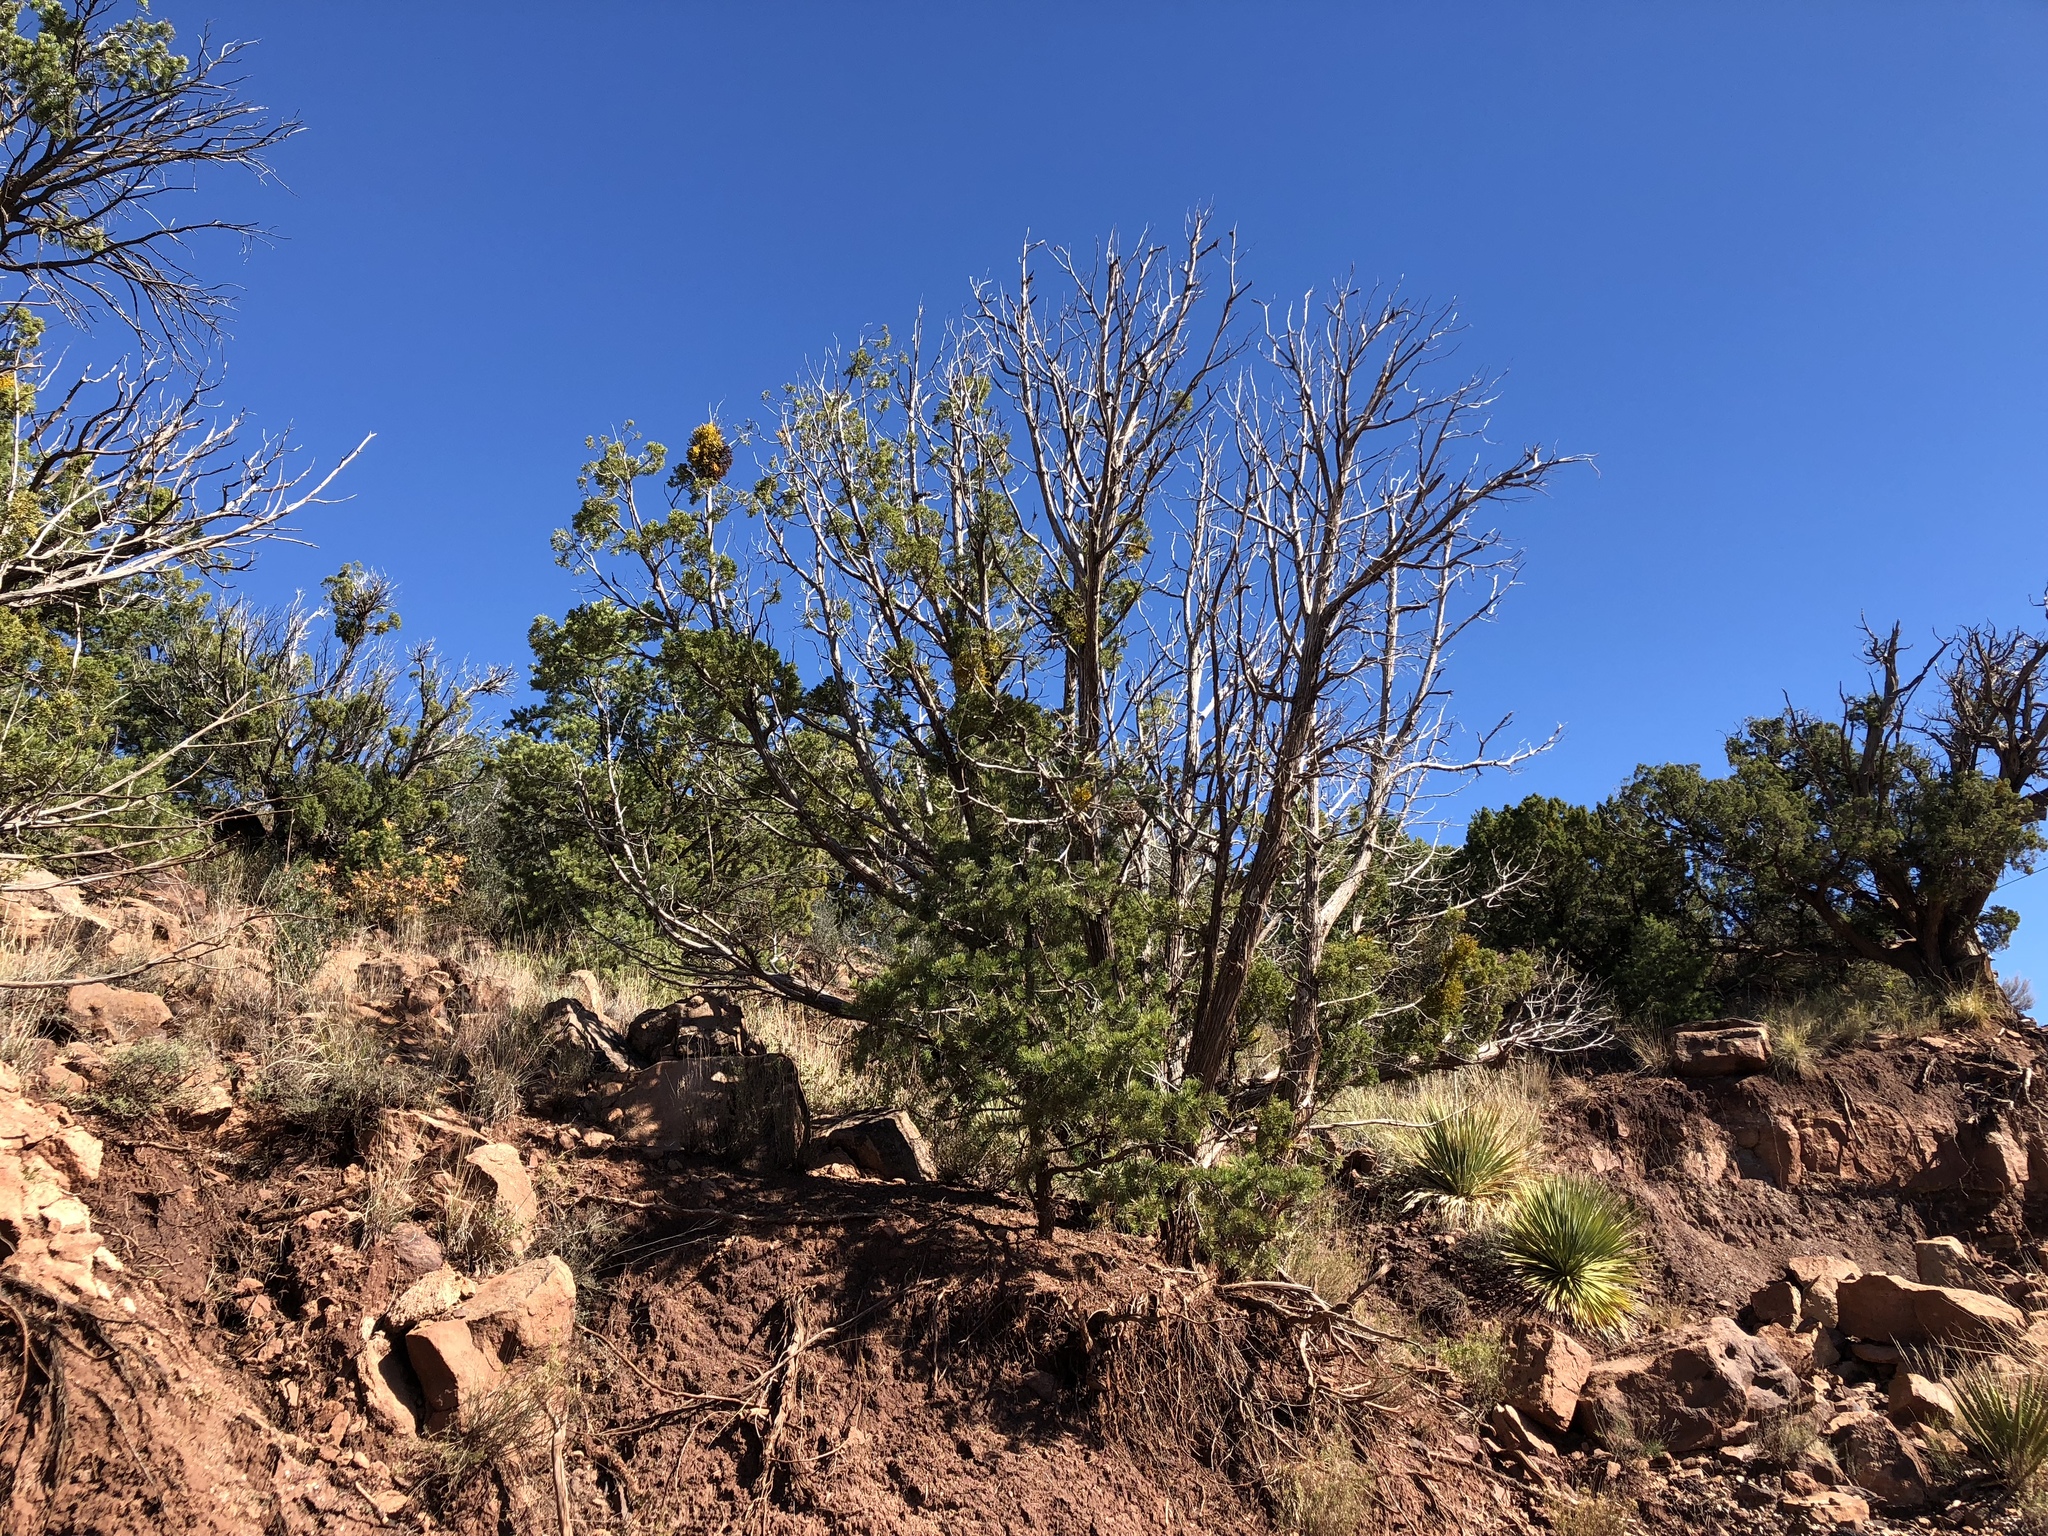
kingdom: Plantae
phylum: Tracheophyta
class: Pinopsida
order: Pinales
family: Cupressaceae
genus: Juniperus
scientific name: Juniperus monosperma
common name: One-seed juniper
